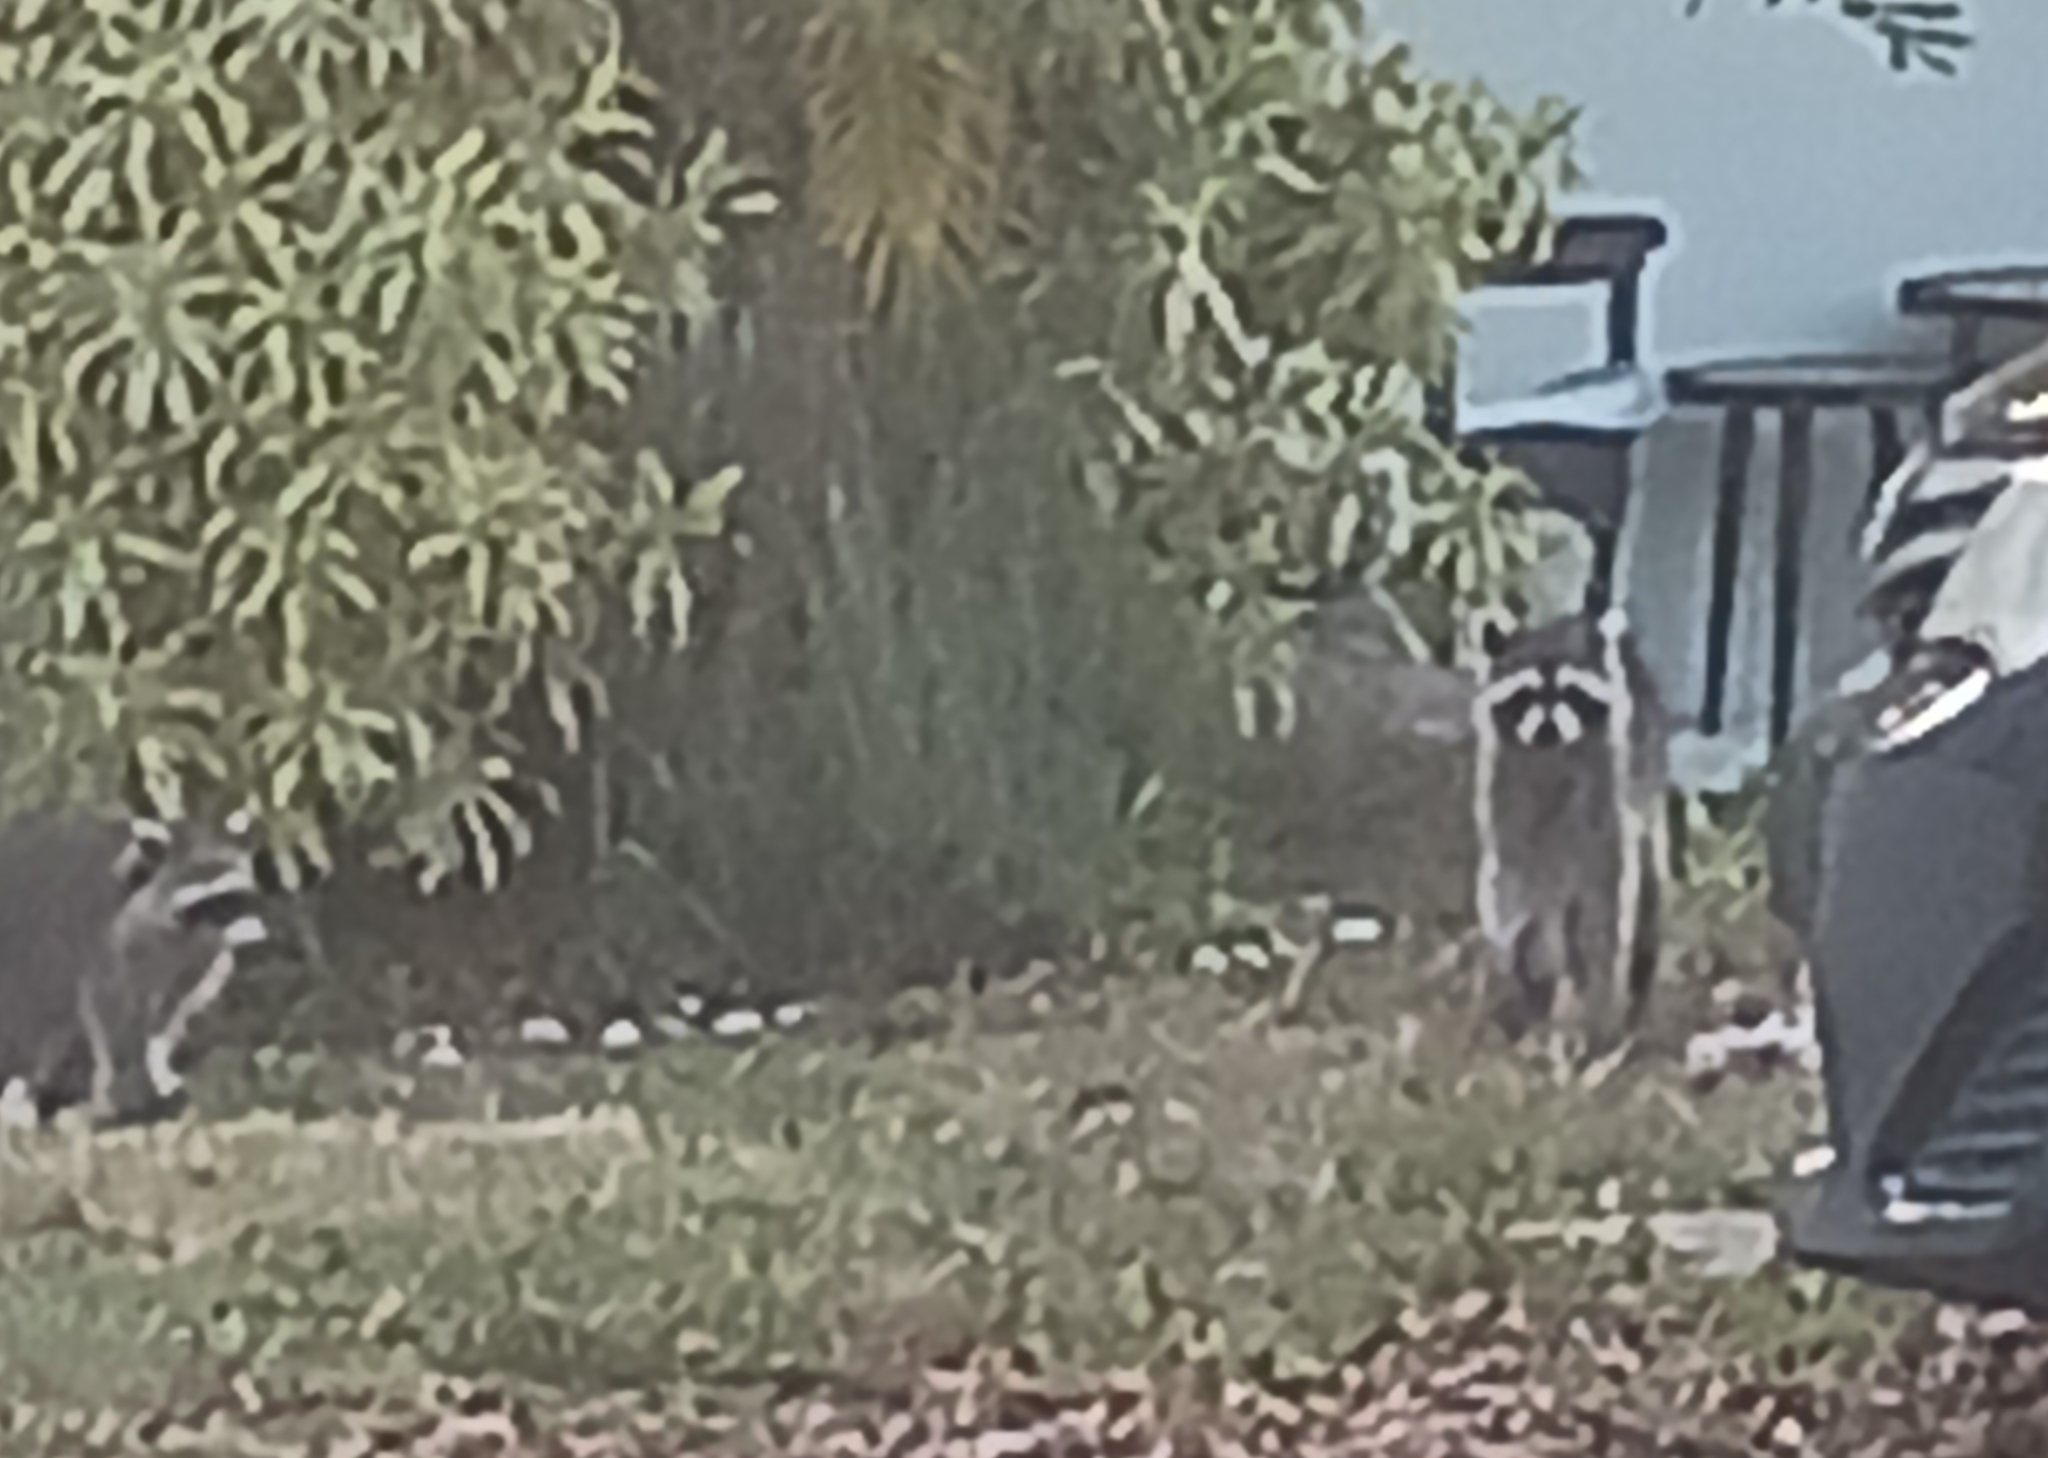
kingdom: Animalia
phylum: Chordata
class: Mammalia
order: Carnivora
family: Procyonidae
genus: Procyon
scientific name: Procyon lotor
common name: Raccoon
